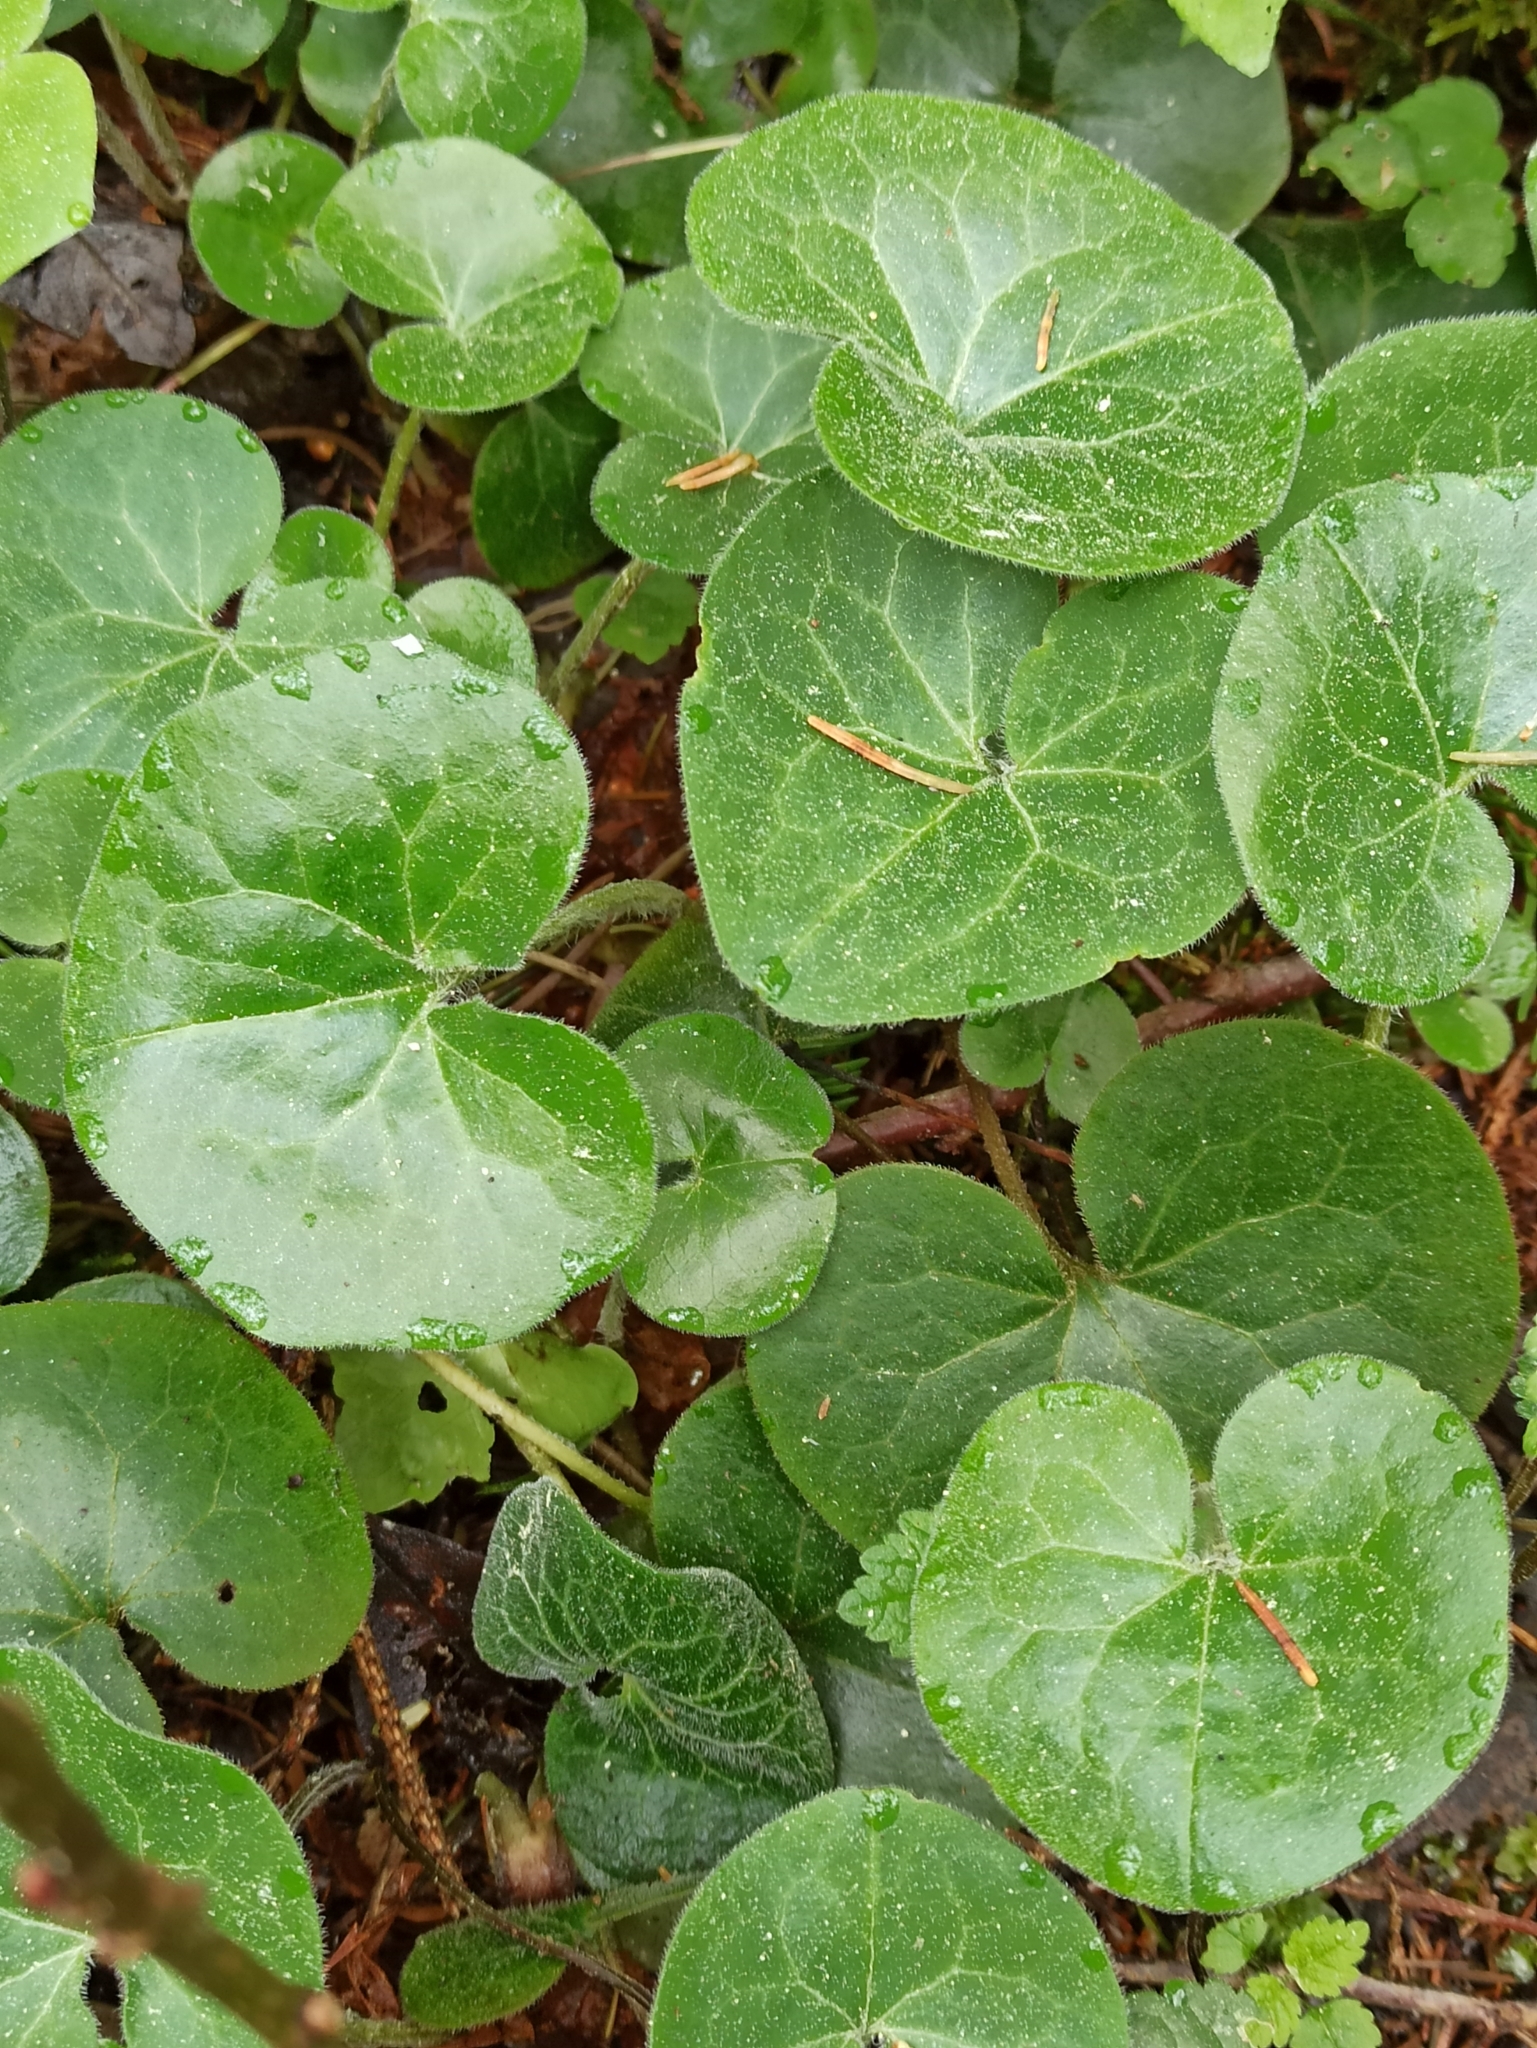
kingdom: Plantae
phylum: Tracheophyta
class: Magnoliopsida
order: Piperales
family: Aristolochiaceae
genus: Asarum
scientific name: Asarum europaeum
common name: Asarabacca
